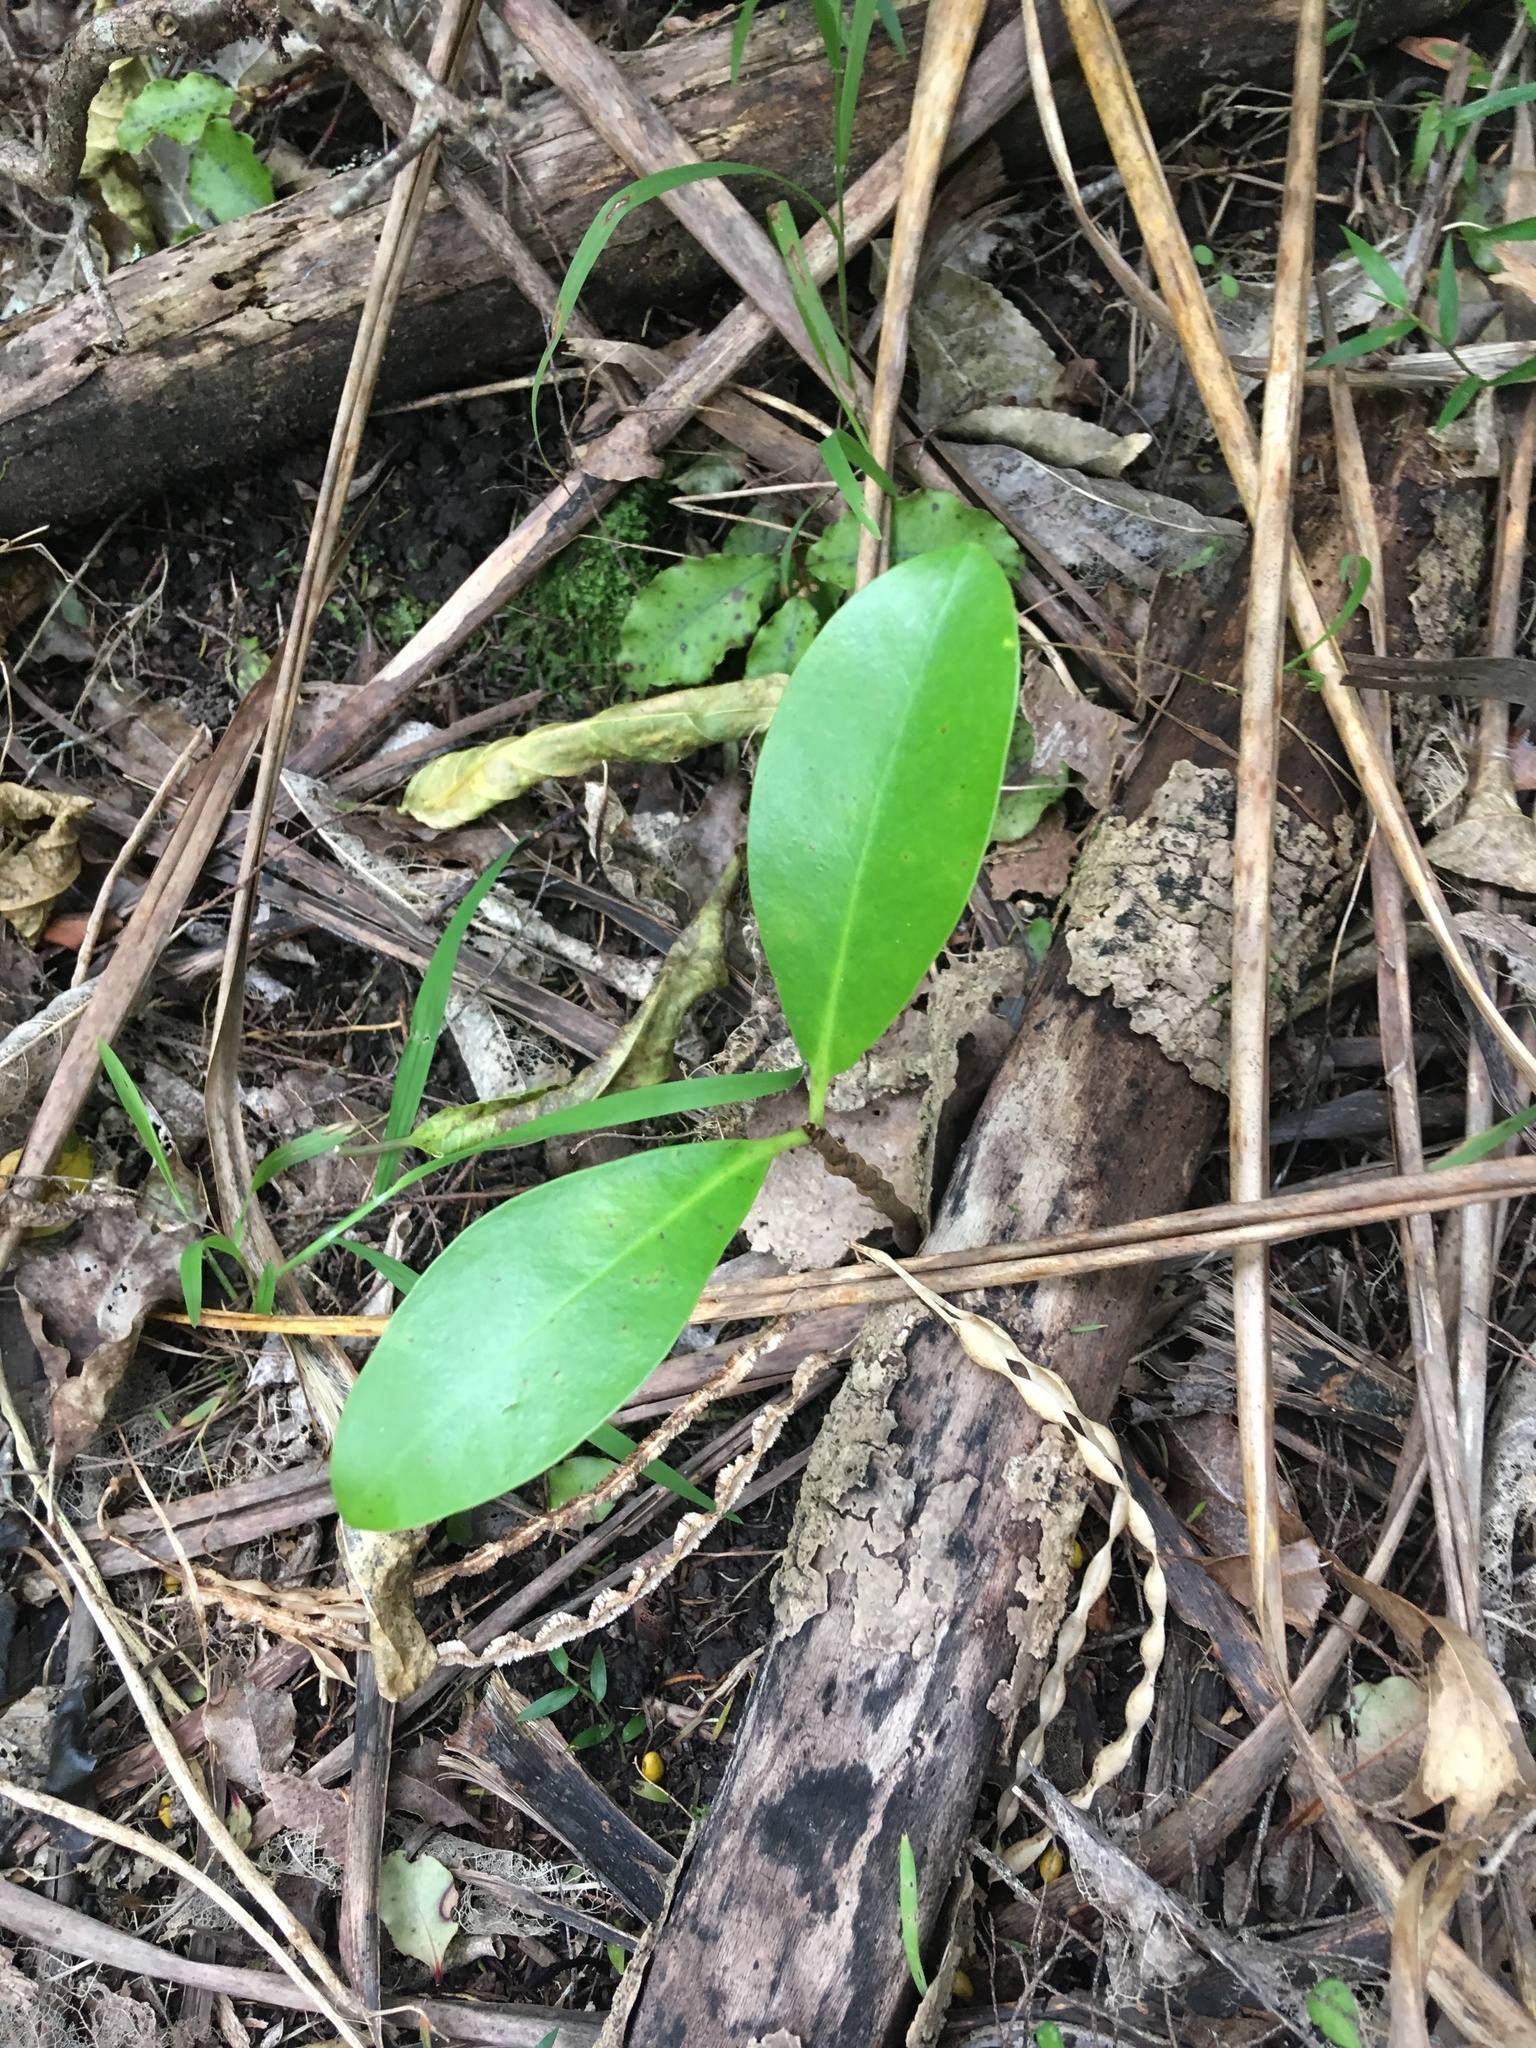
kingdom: Plantae
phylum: Tracheophyta
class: Magnoliopsida
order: Cucurbitales
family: Corynocarpaceae
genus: Corynocarpus
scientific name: Corynocarpus laevigatus
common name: New zealand laurel
